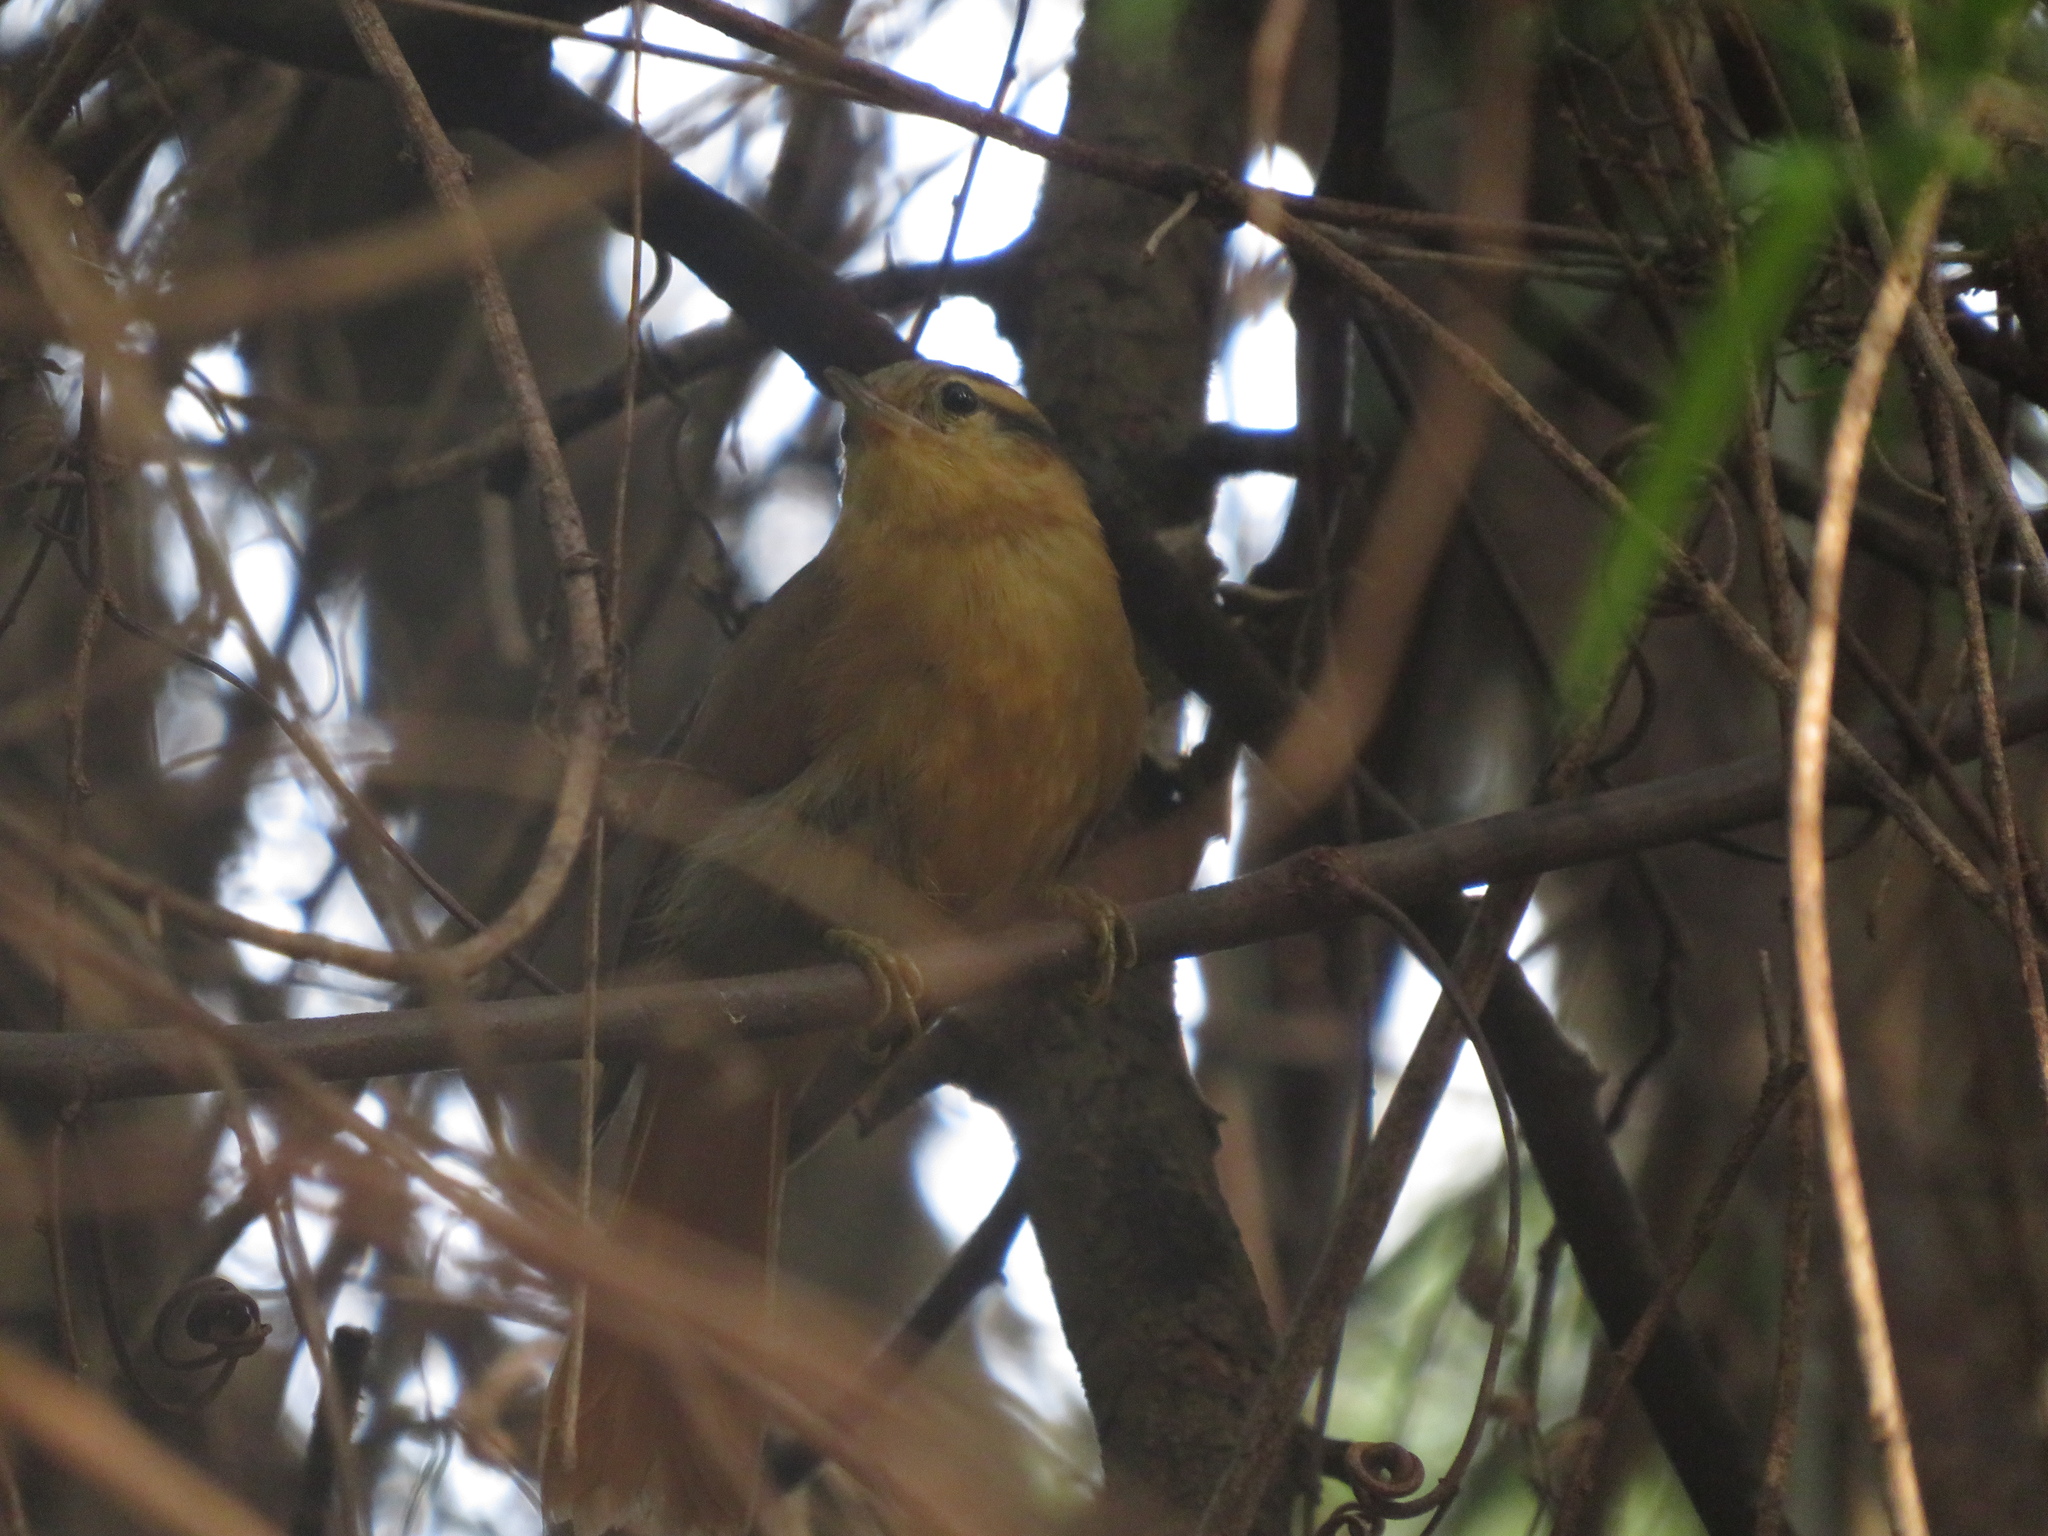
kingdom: Animalia
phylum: Chordata
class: Aves
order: Passeriformes
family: Furnariidae
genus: Philydor
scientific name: Philydor lichtensteini
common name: Ochre-breasted foliage-gleaner
